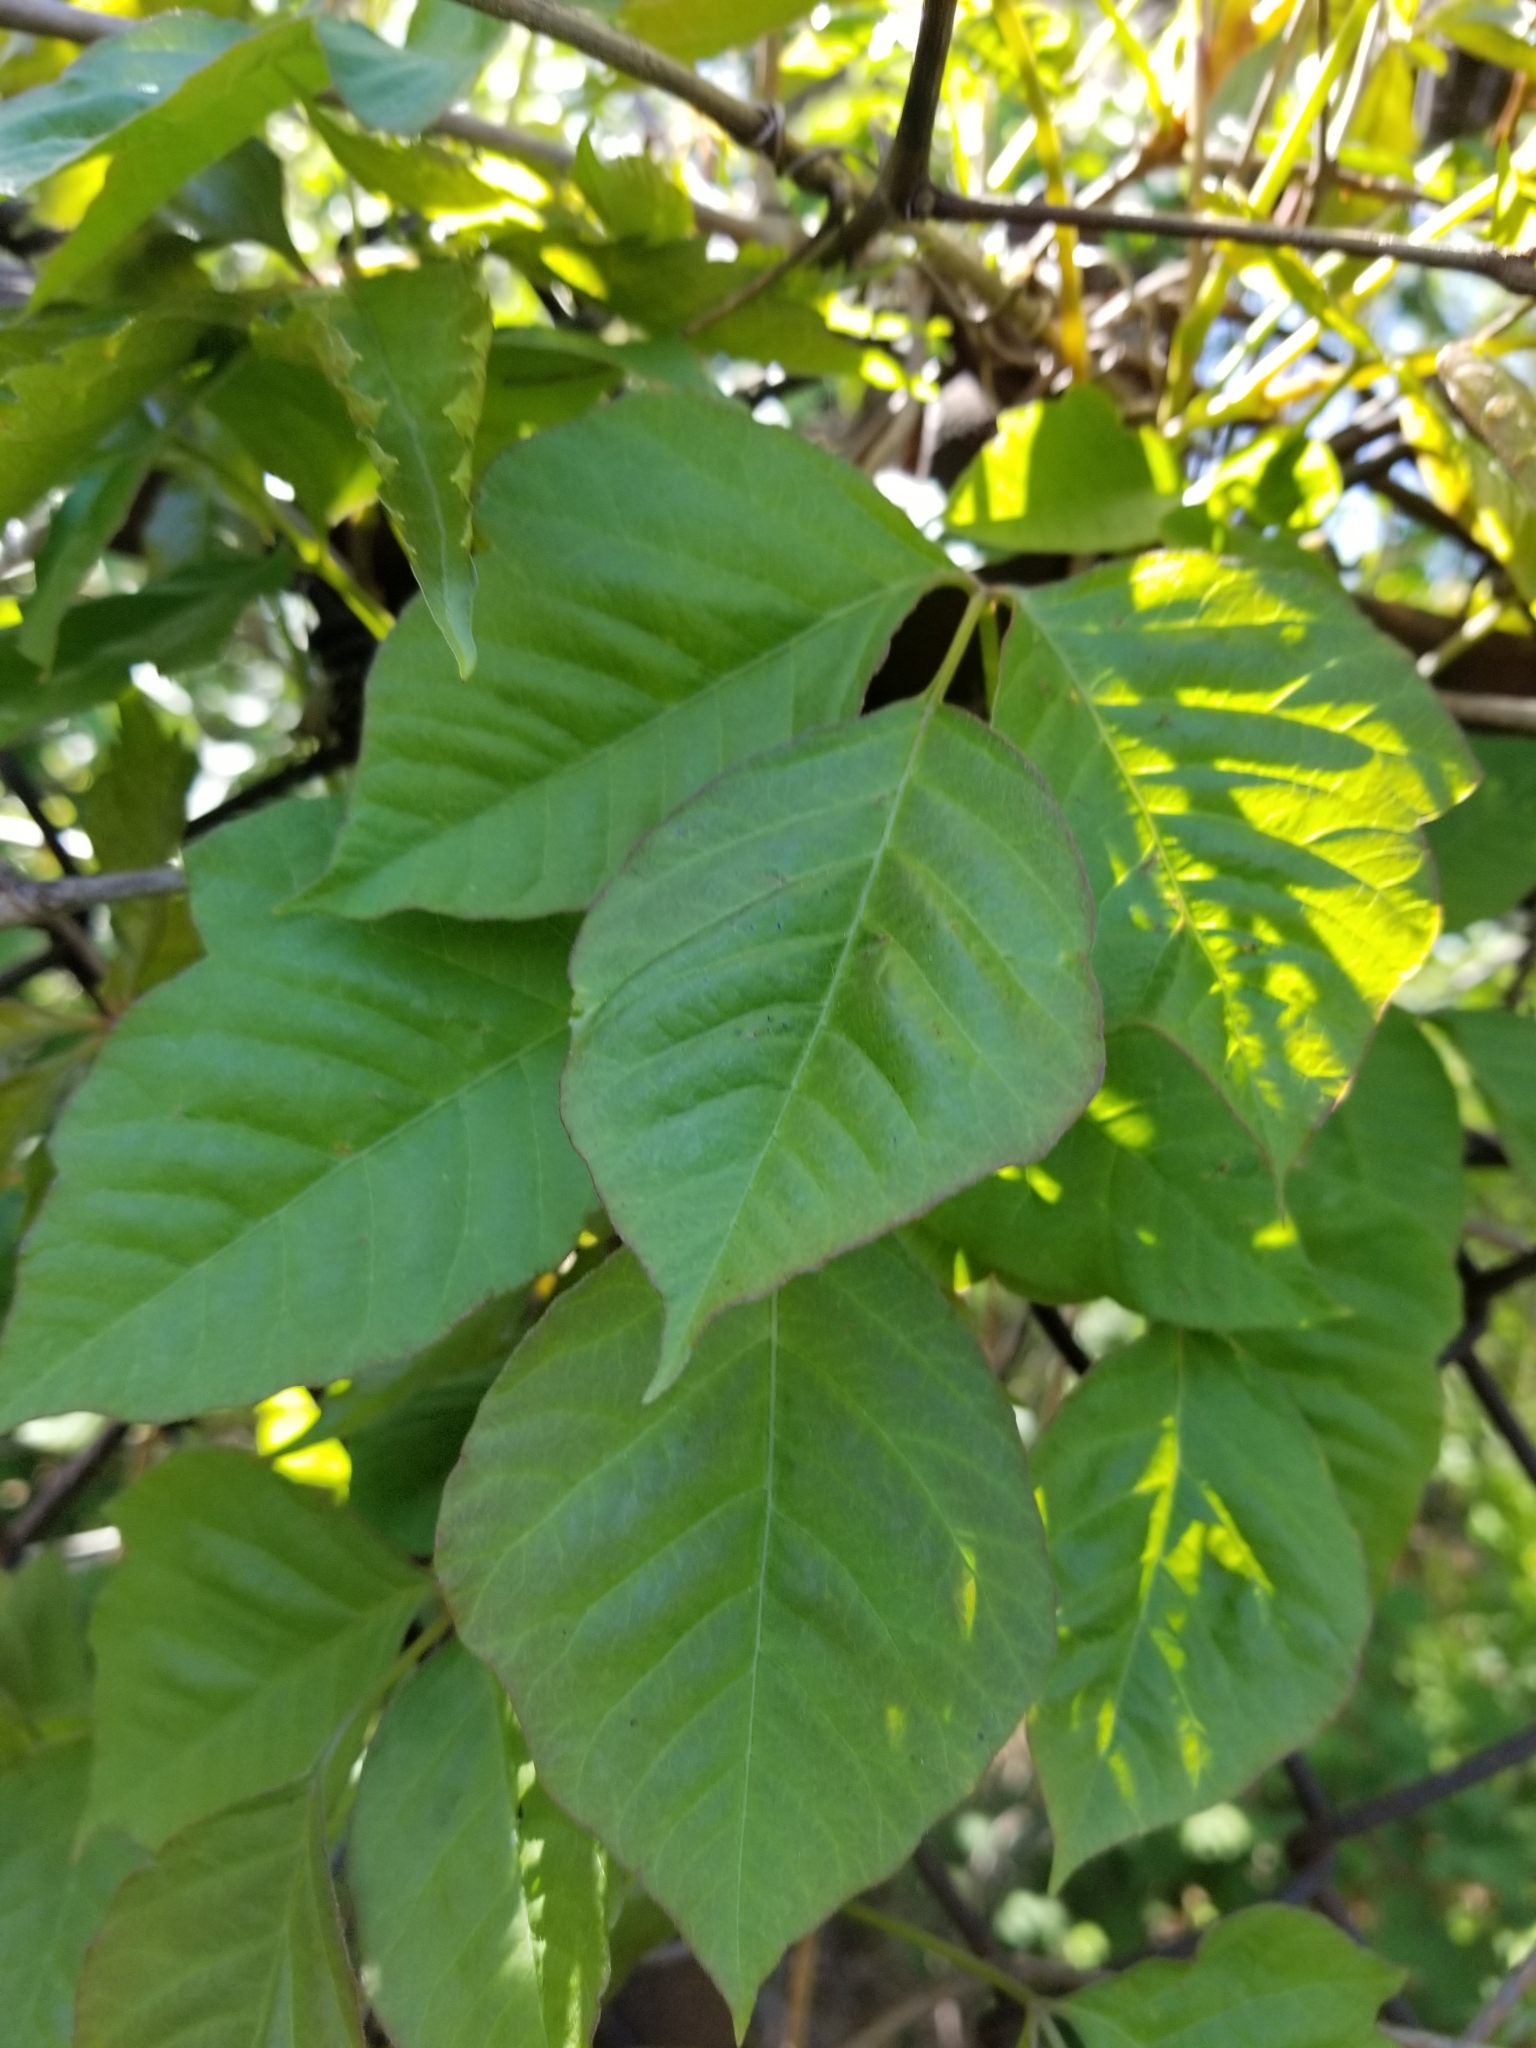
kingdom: Plantae
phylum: Tracheophyta
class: Magnoliopsida
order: Sapindales
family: Anacardiaceae
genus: Toxicodendron
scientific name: Toxicodendron radicans
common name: Poison ivy
